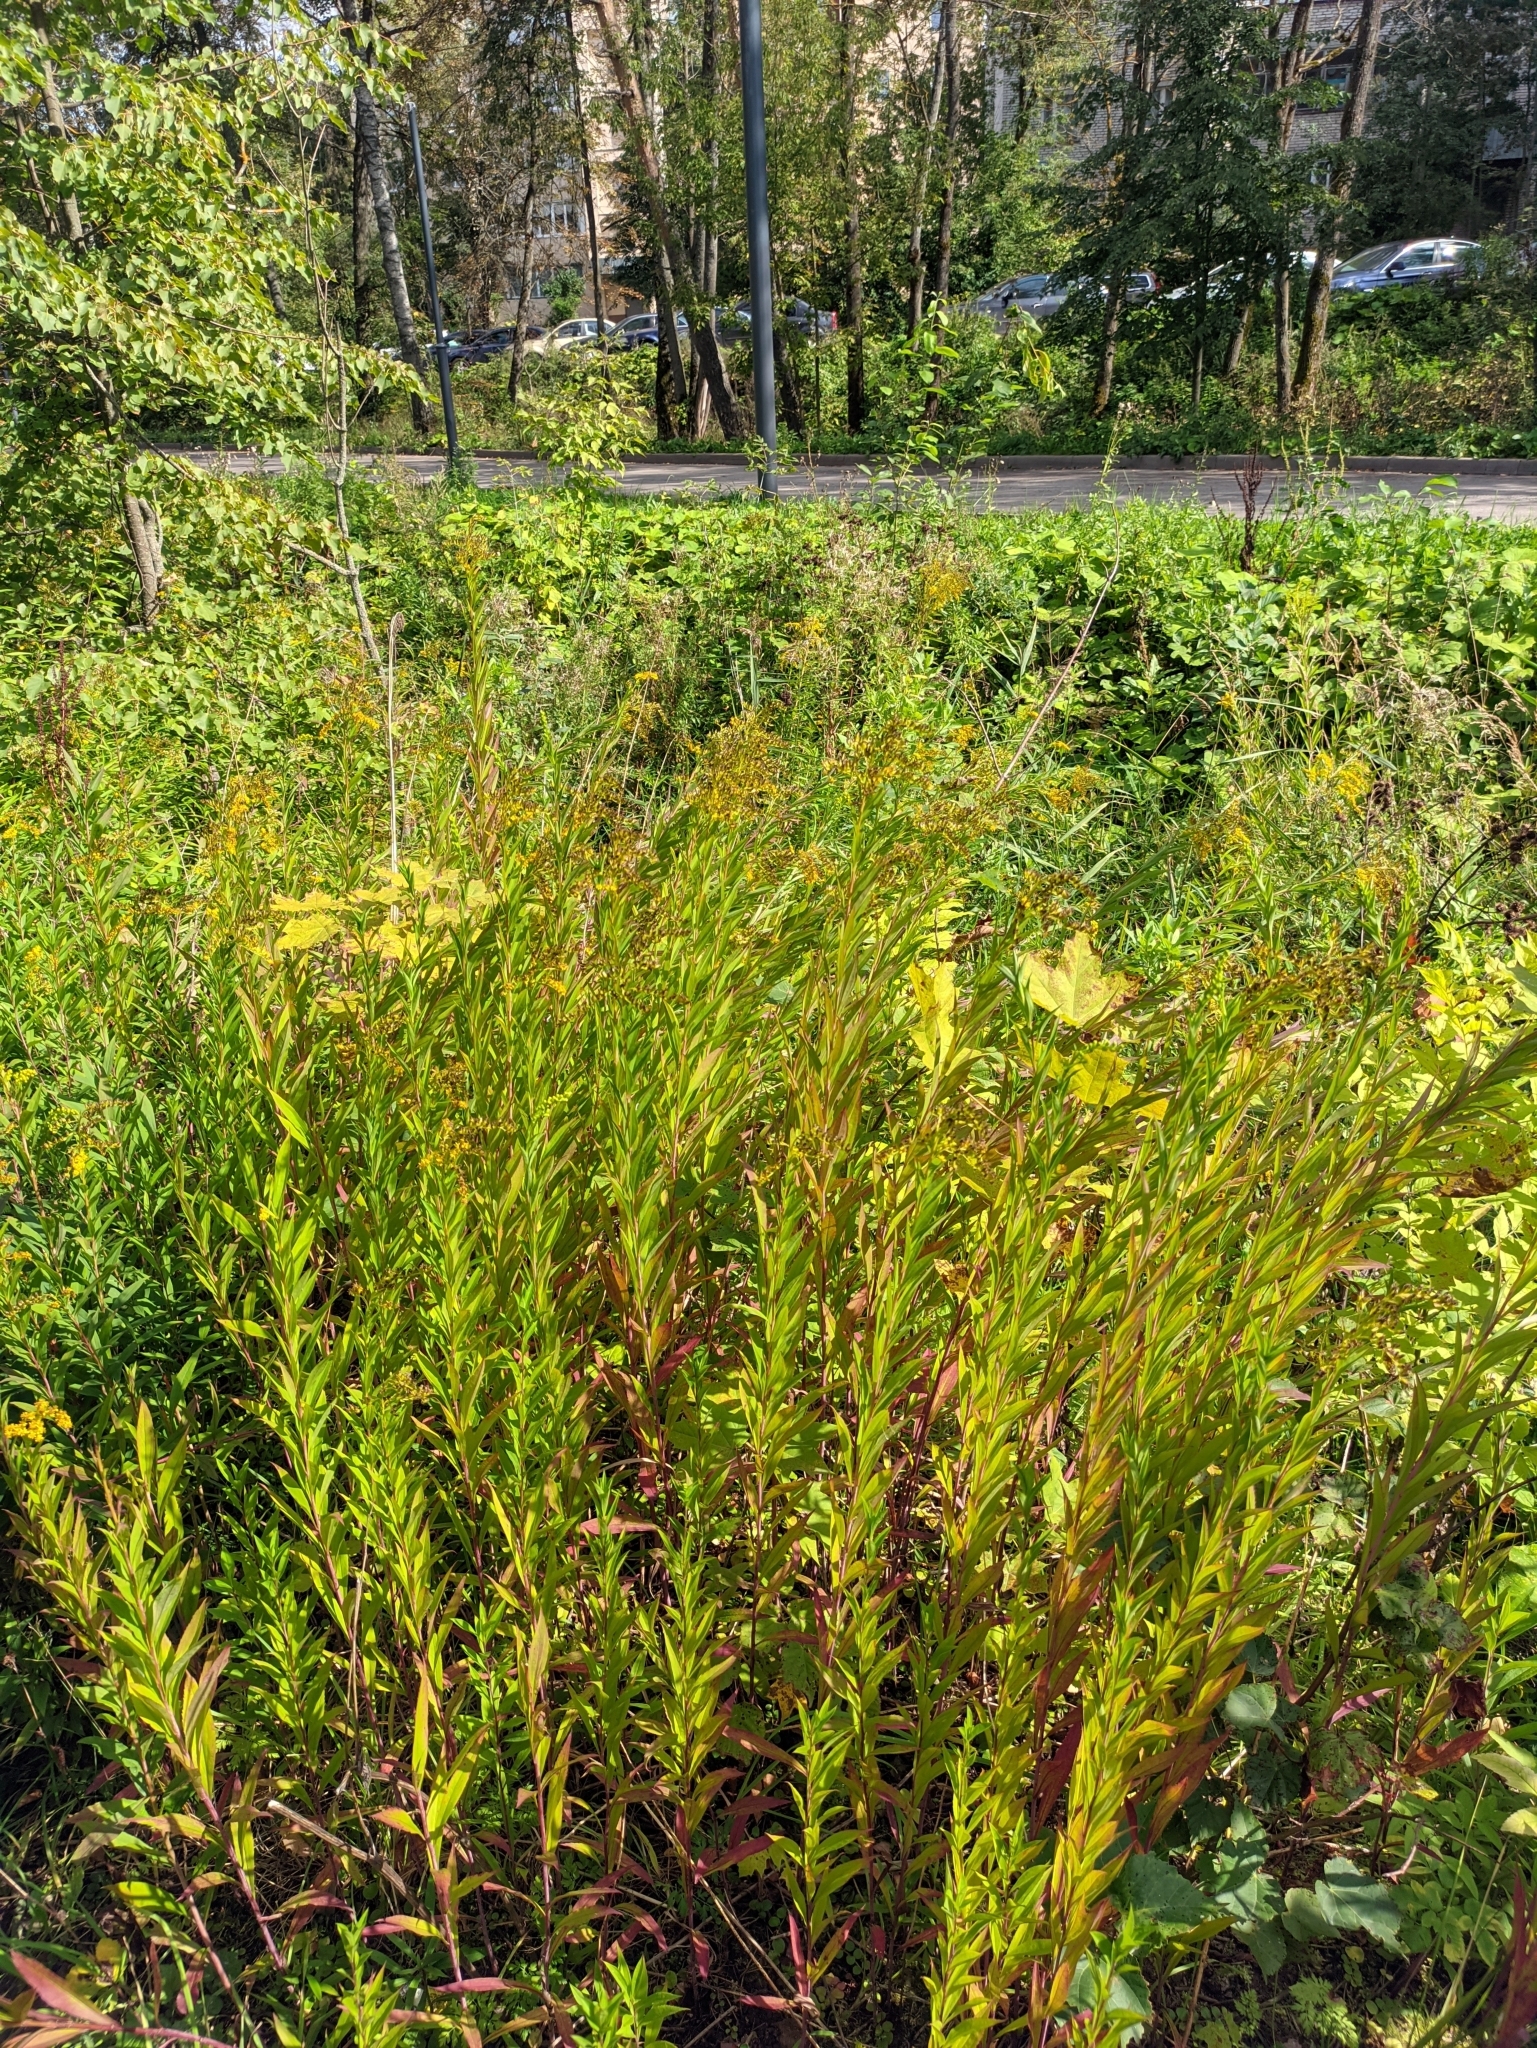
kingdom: Plantae
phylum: Tracheophyta
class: Magnoliopsida
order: Asterales
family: Asteraceae
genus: Solidago
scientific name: Solidago gigantea
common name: Giant goldenrod
